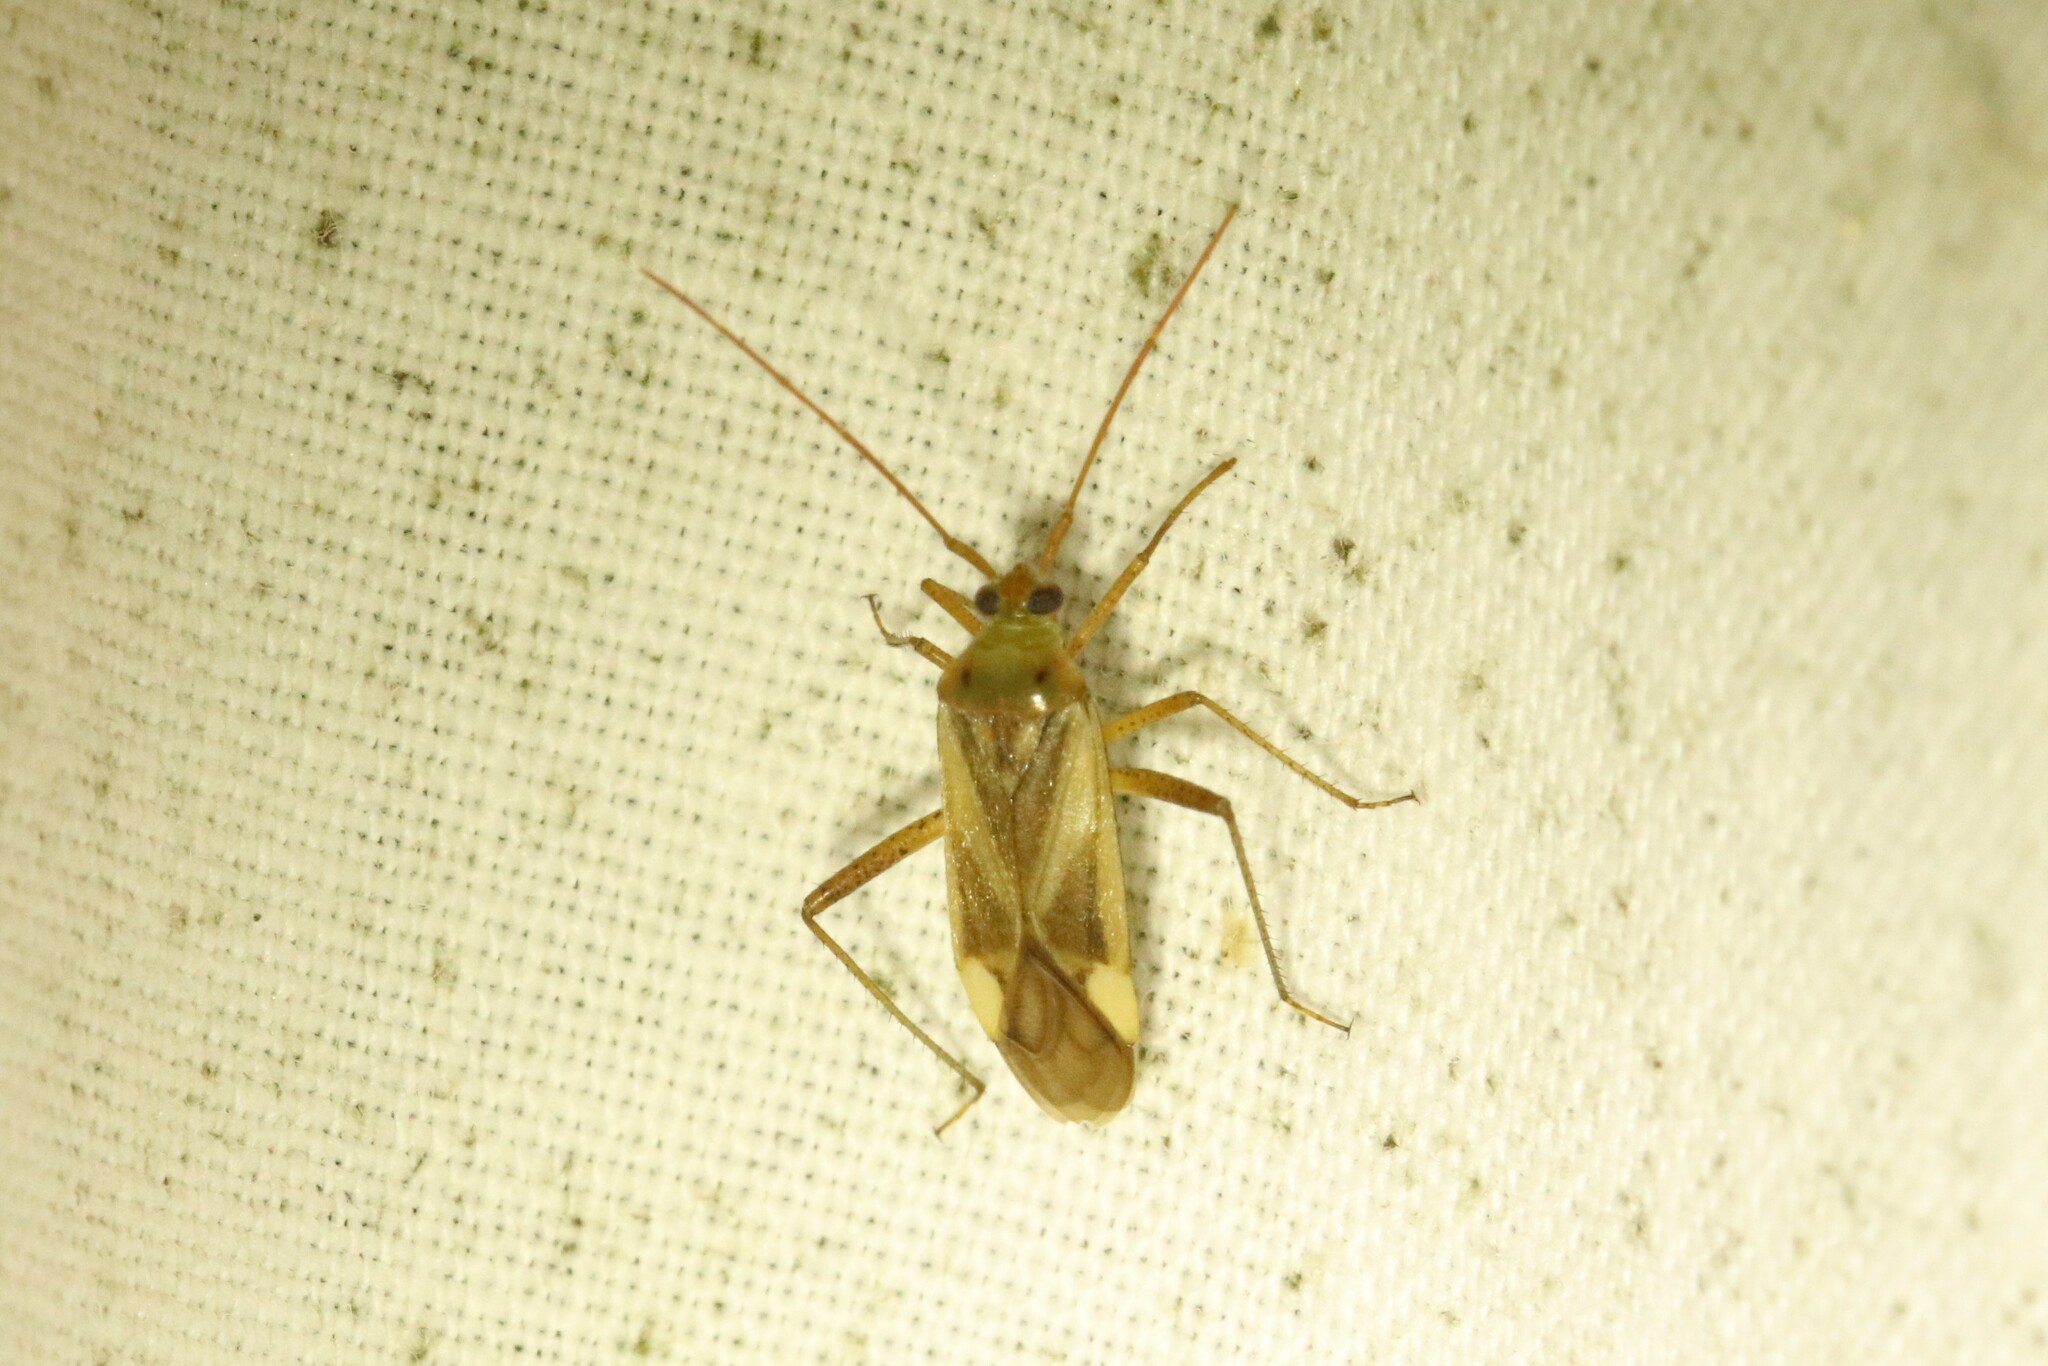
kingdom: Animalia
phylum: Arthropoda
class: Insecta
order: Hemiptera
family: Miridae
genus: Adelphocoris
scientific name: Adelphocoris lineolatus
